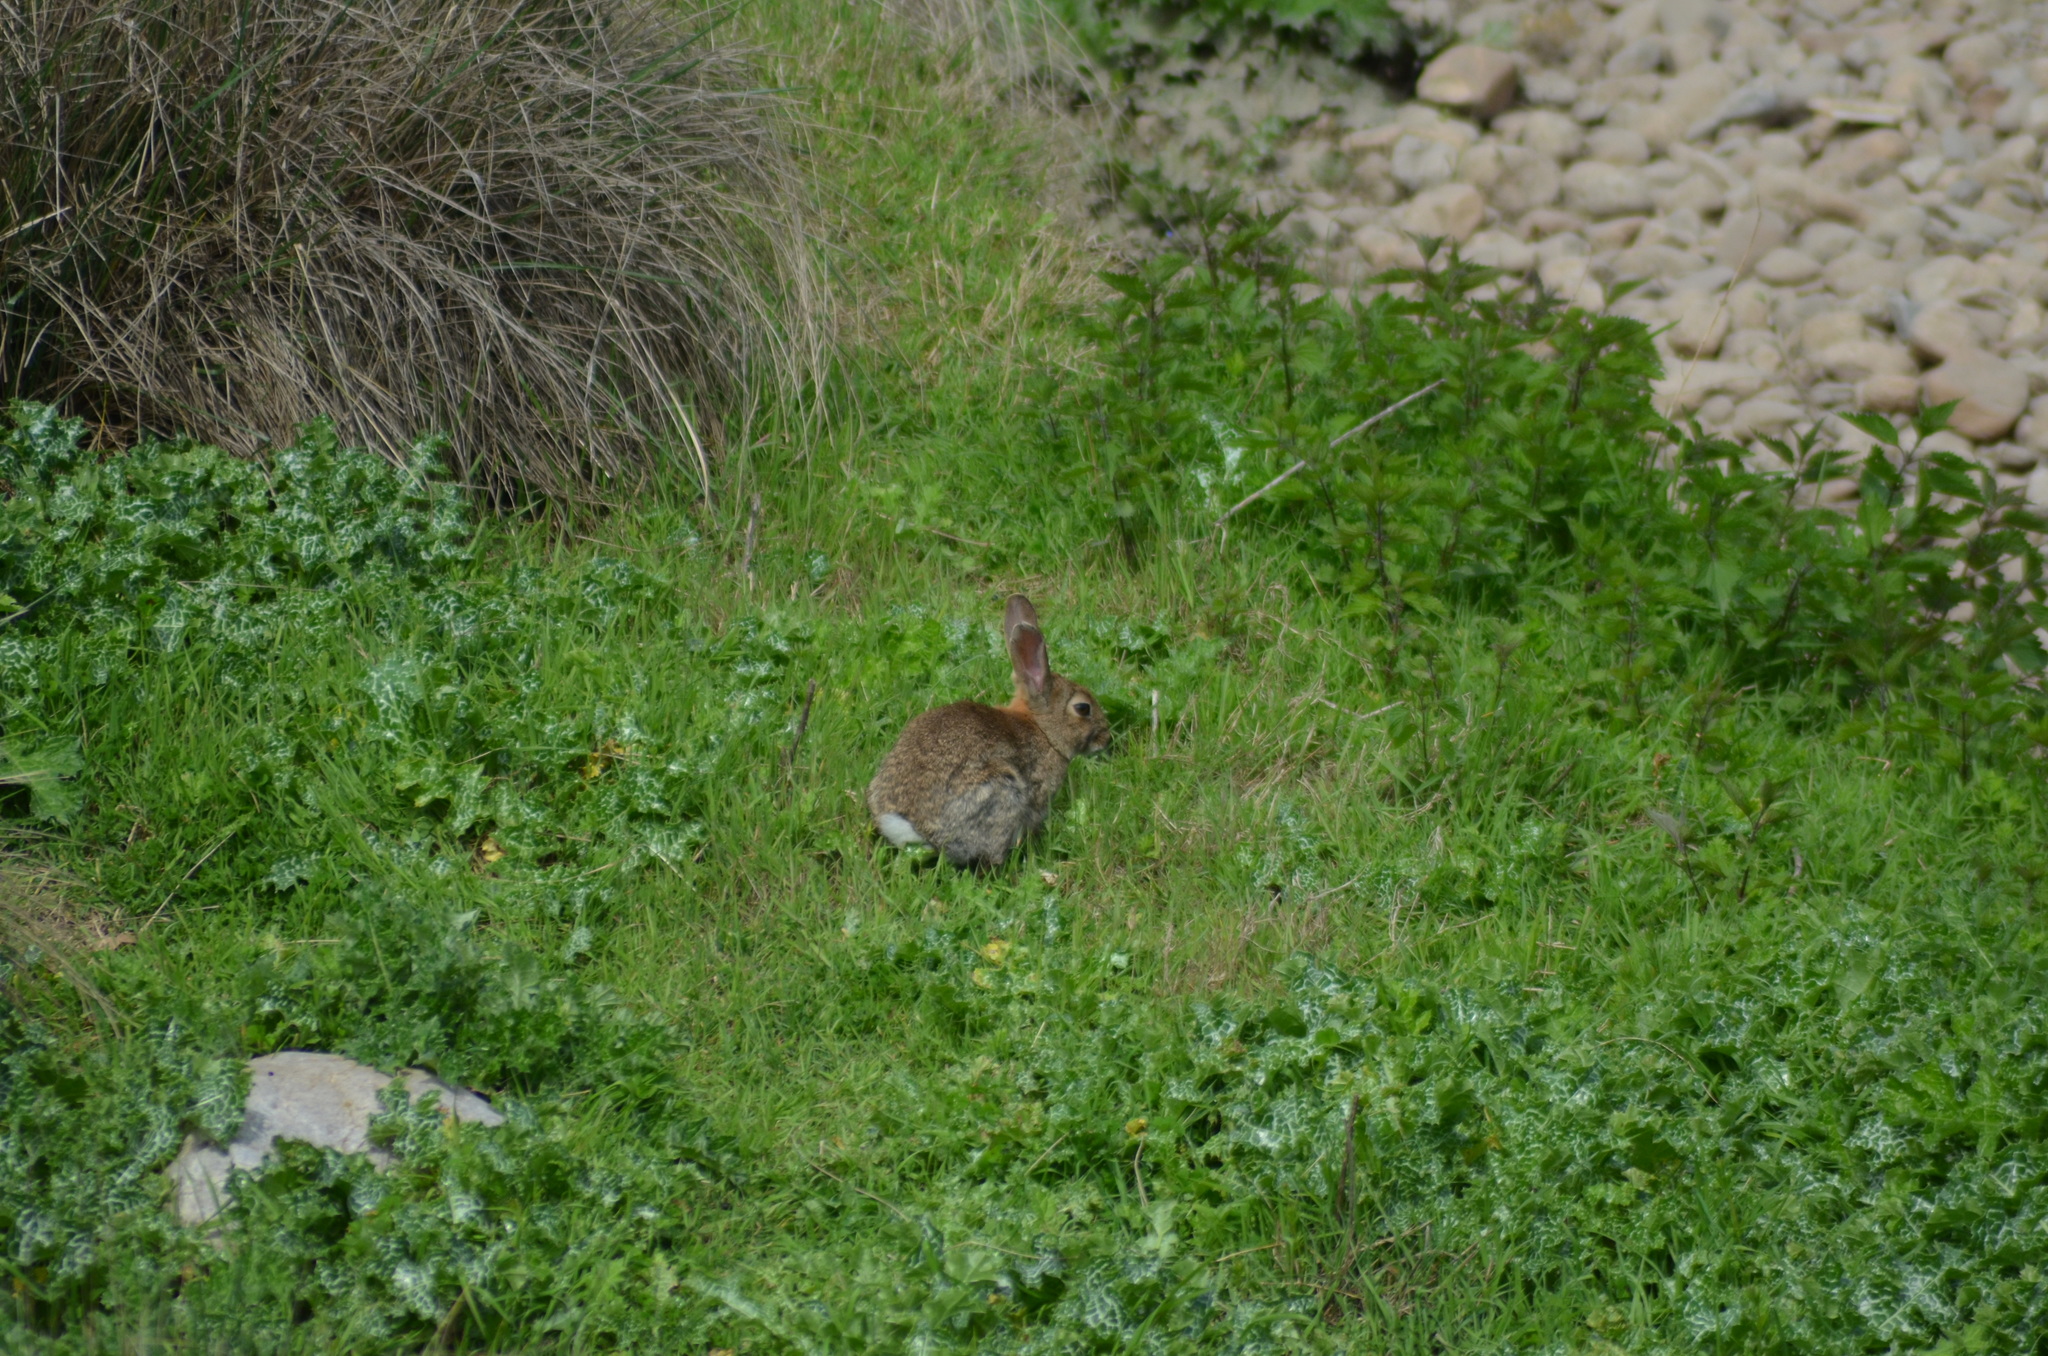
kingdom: Animalia
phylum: Chordata
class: Mammalia
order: Lagomorpha
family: Leporidae
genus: Oryctolagus
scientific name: Oryctolagus cuniculus
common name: European rabbit
